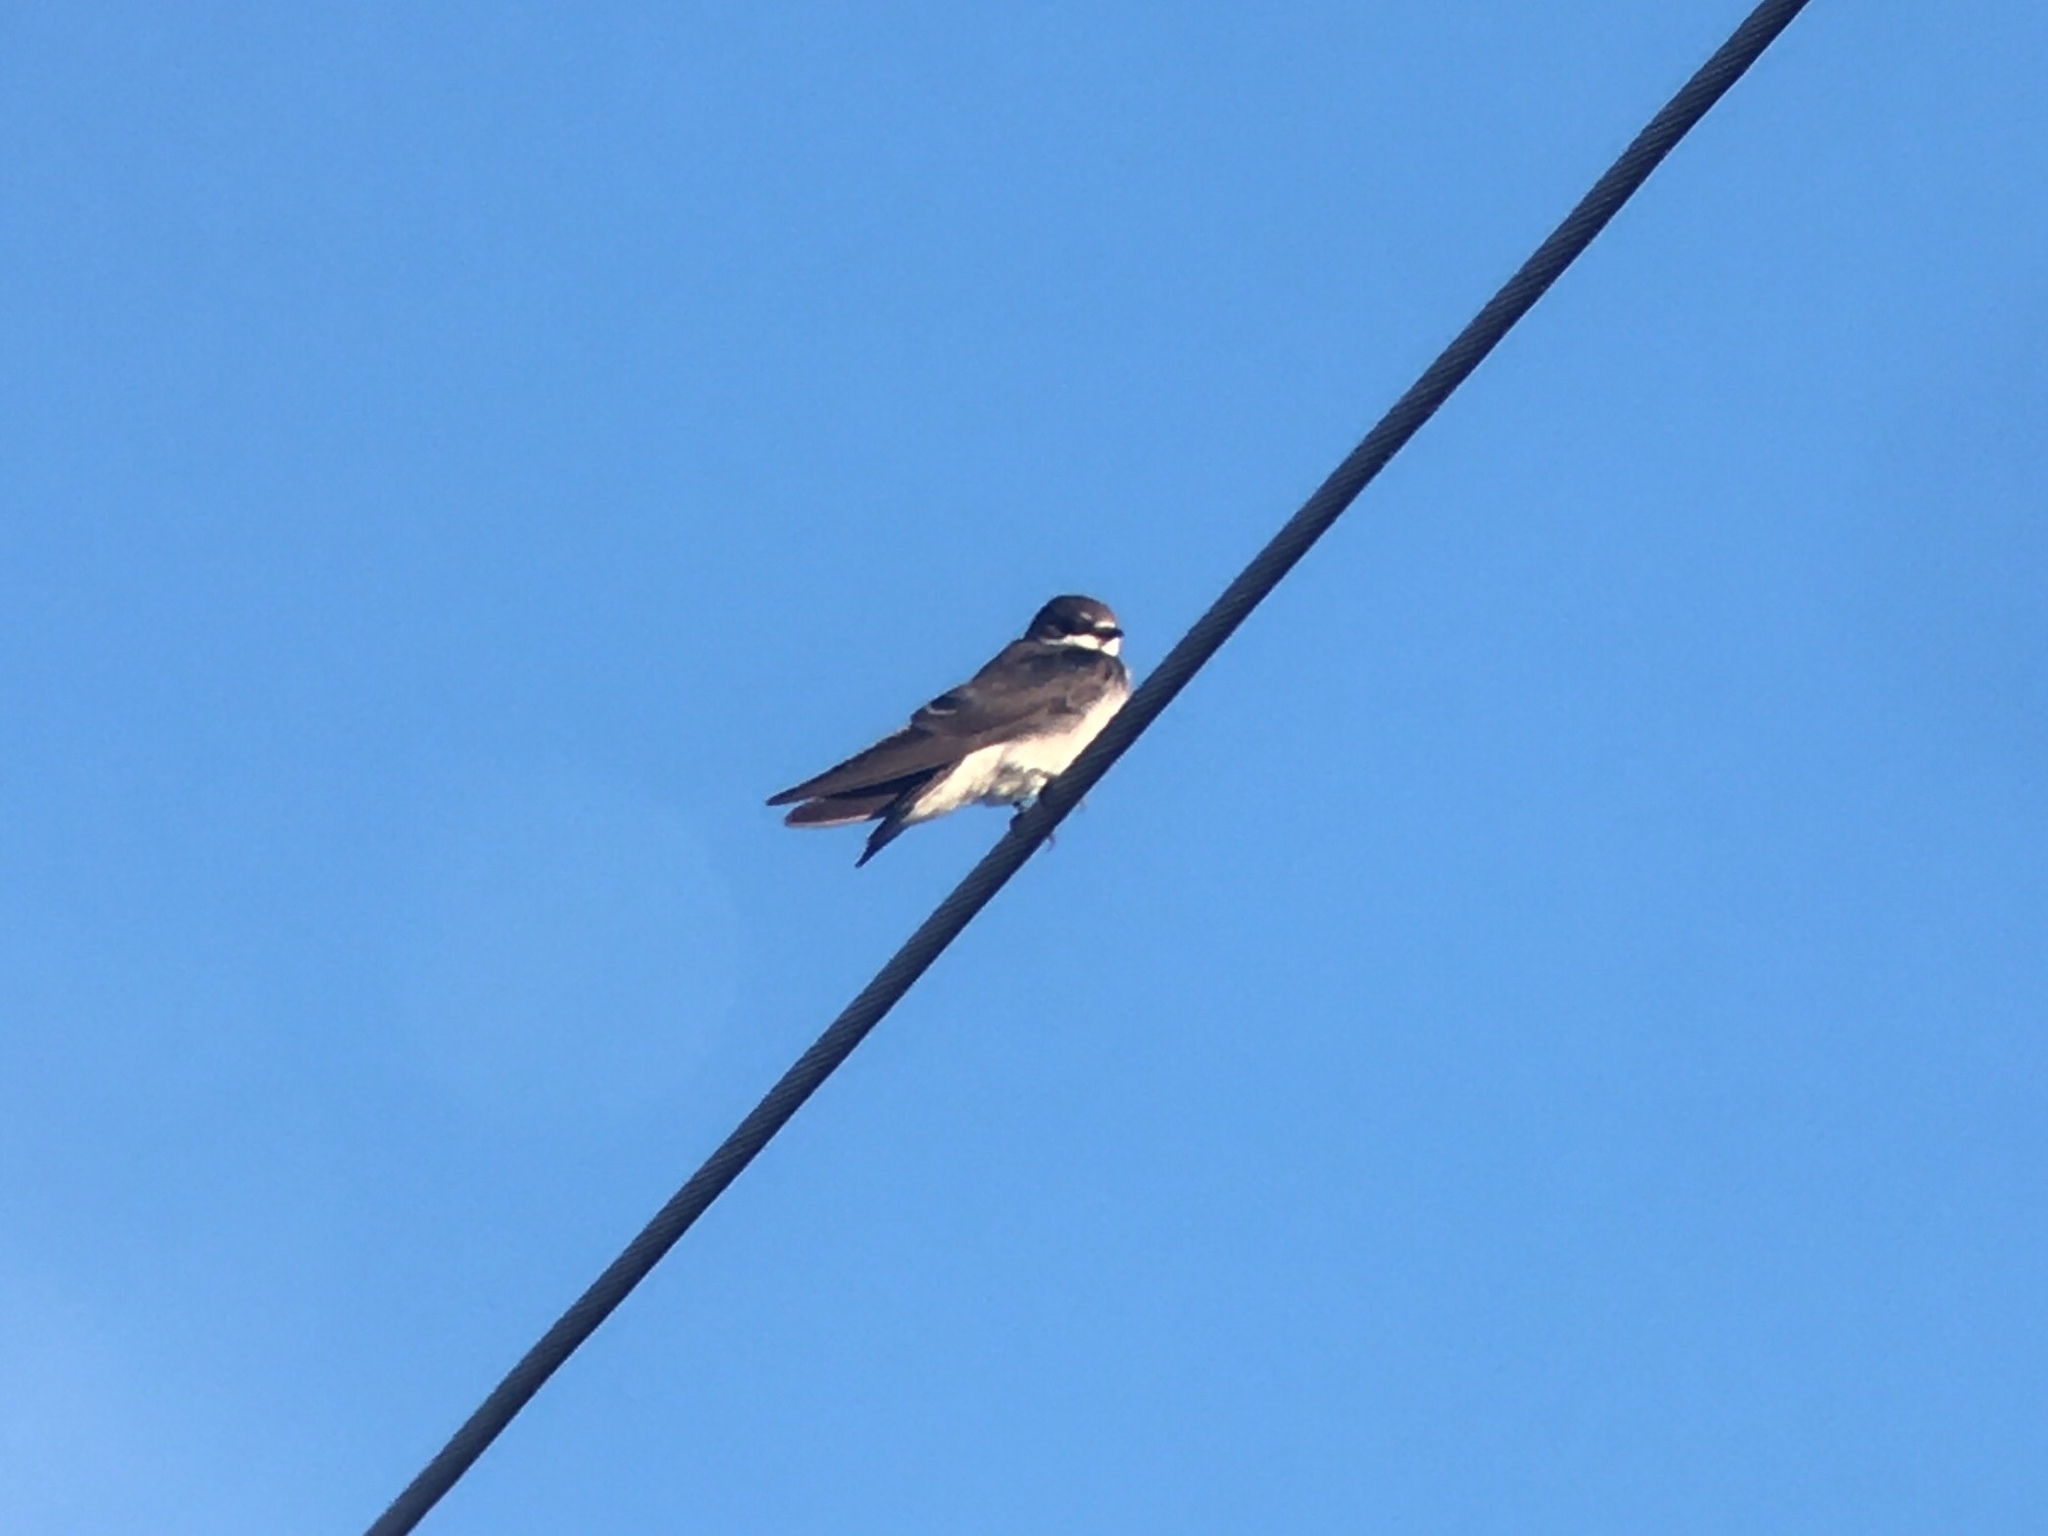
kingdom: Animalia
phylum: Chordata
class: Aves
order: Passeriformes
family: Hirundinidae
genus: Tachycineta
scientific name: Tachycineta leucorrhoa
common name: White-rumped swallow
